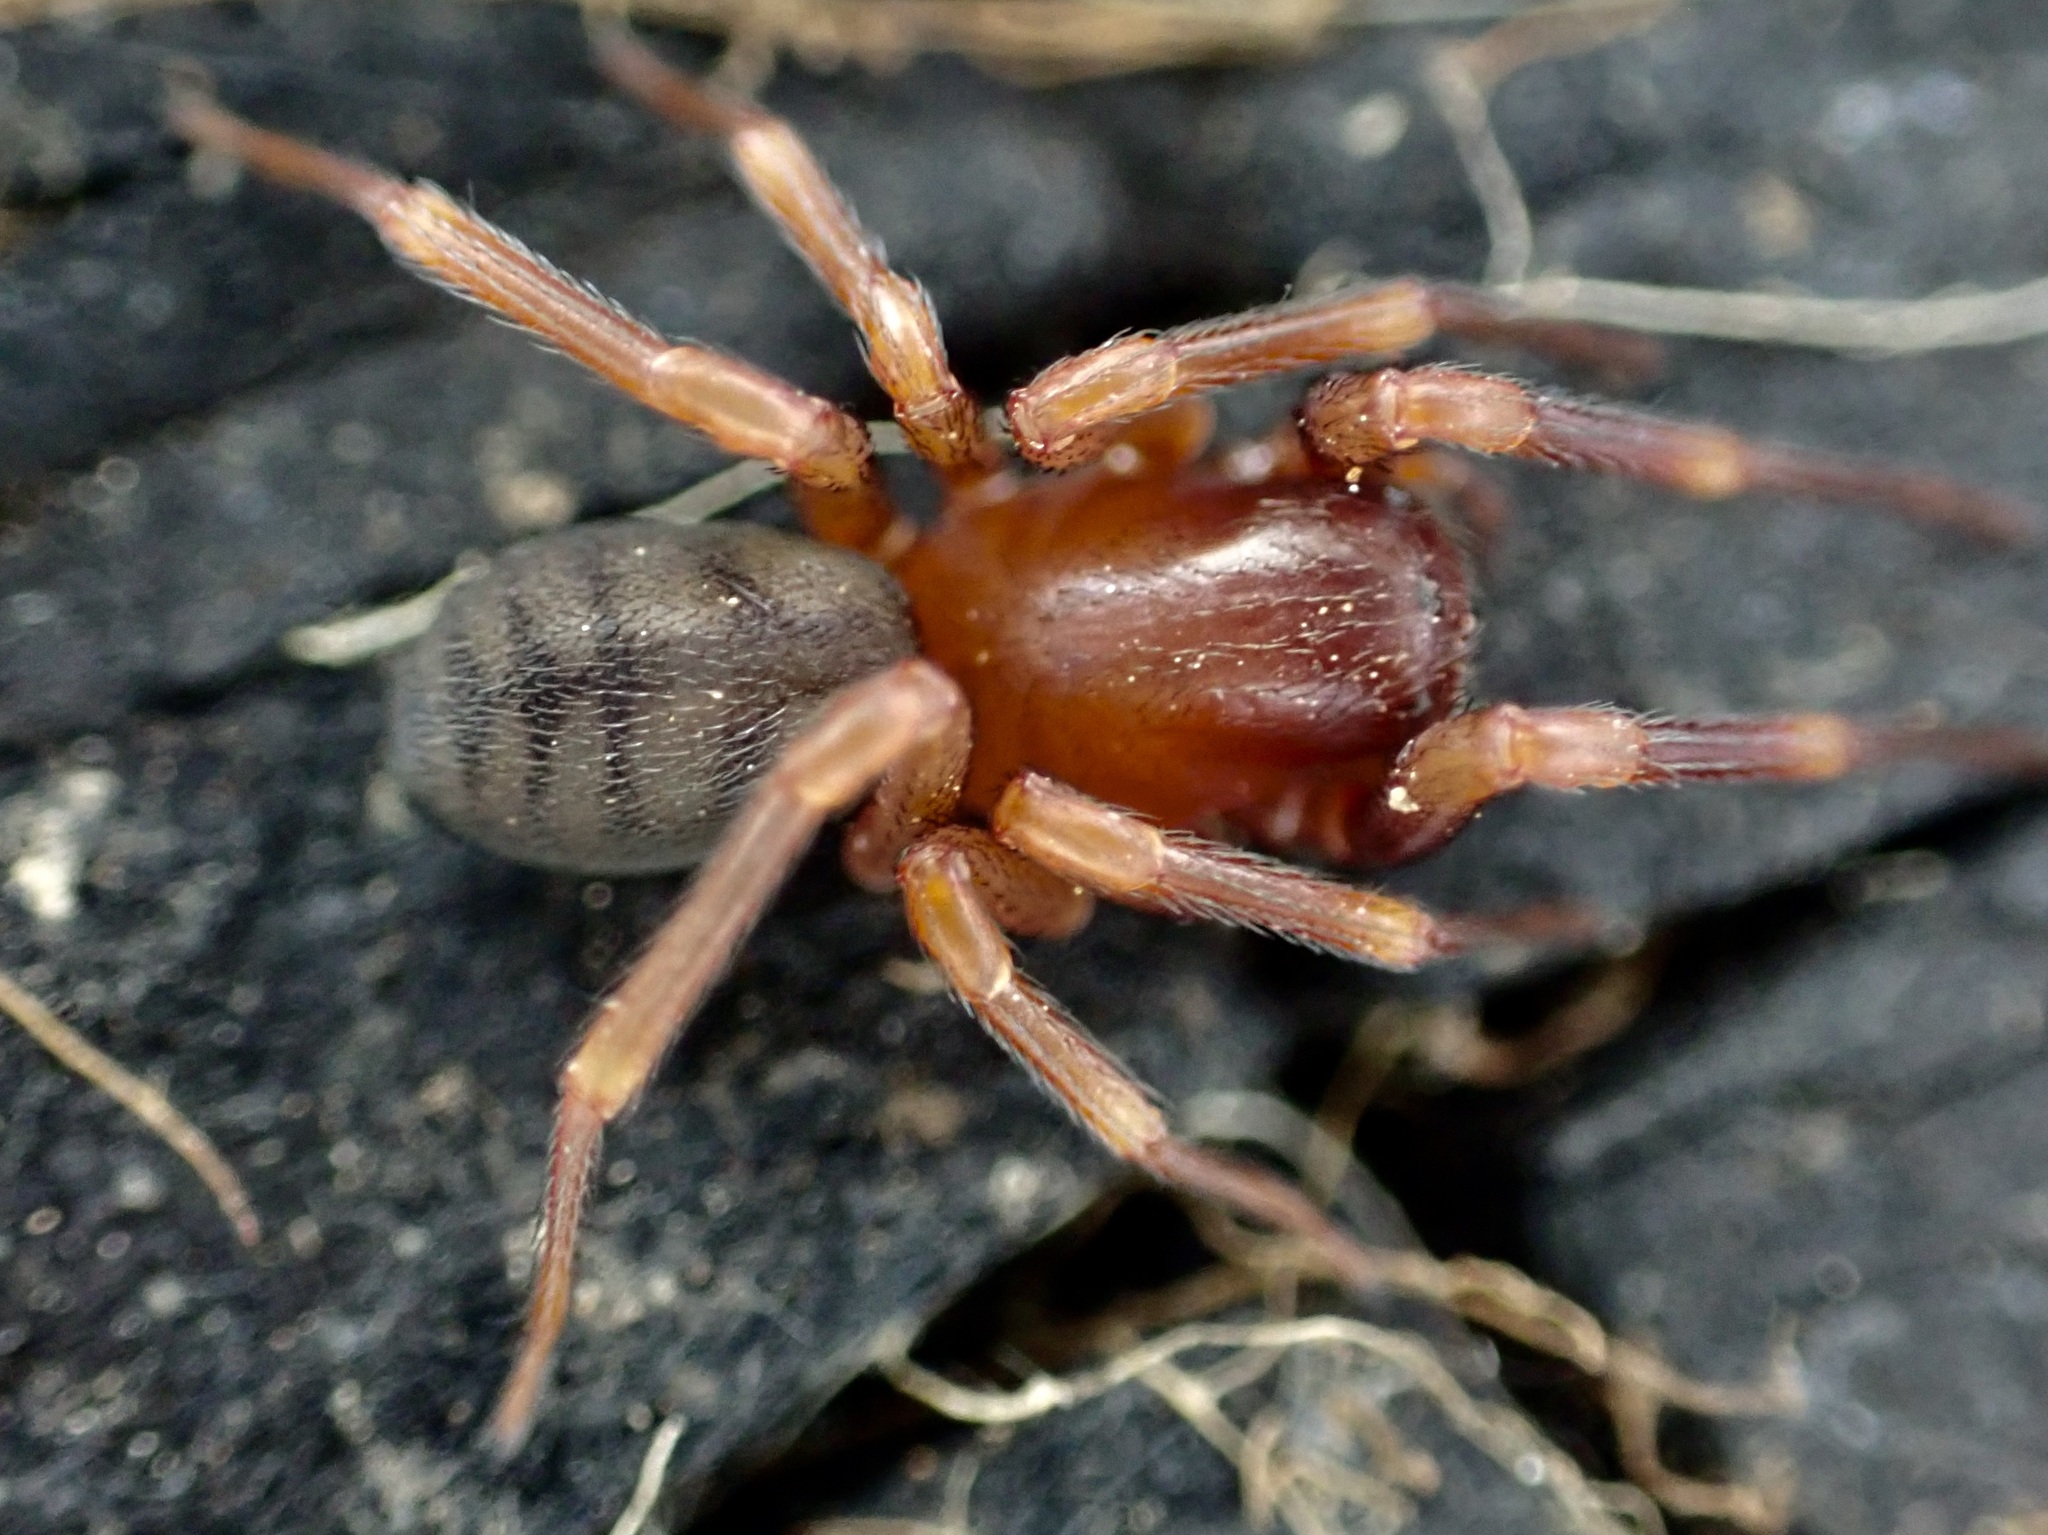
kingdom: Animalia
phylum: Arthropoda
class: Arachnida
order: Araneae
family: Periegopidae
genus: Periegops
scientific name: Periegops suterii
